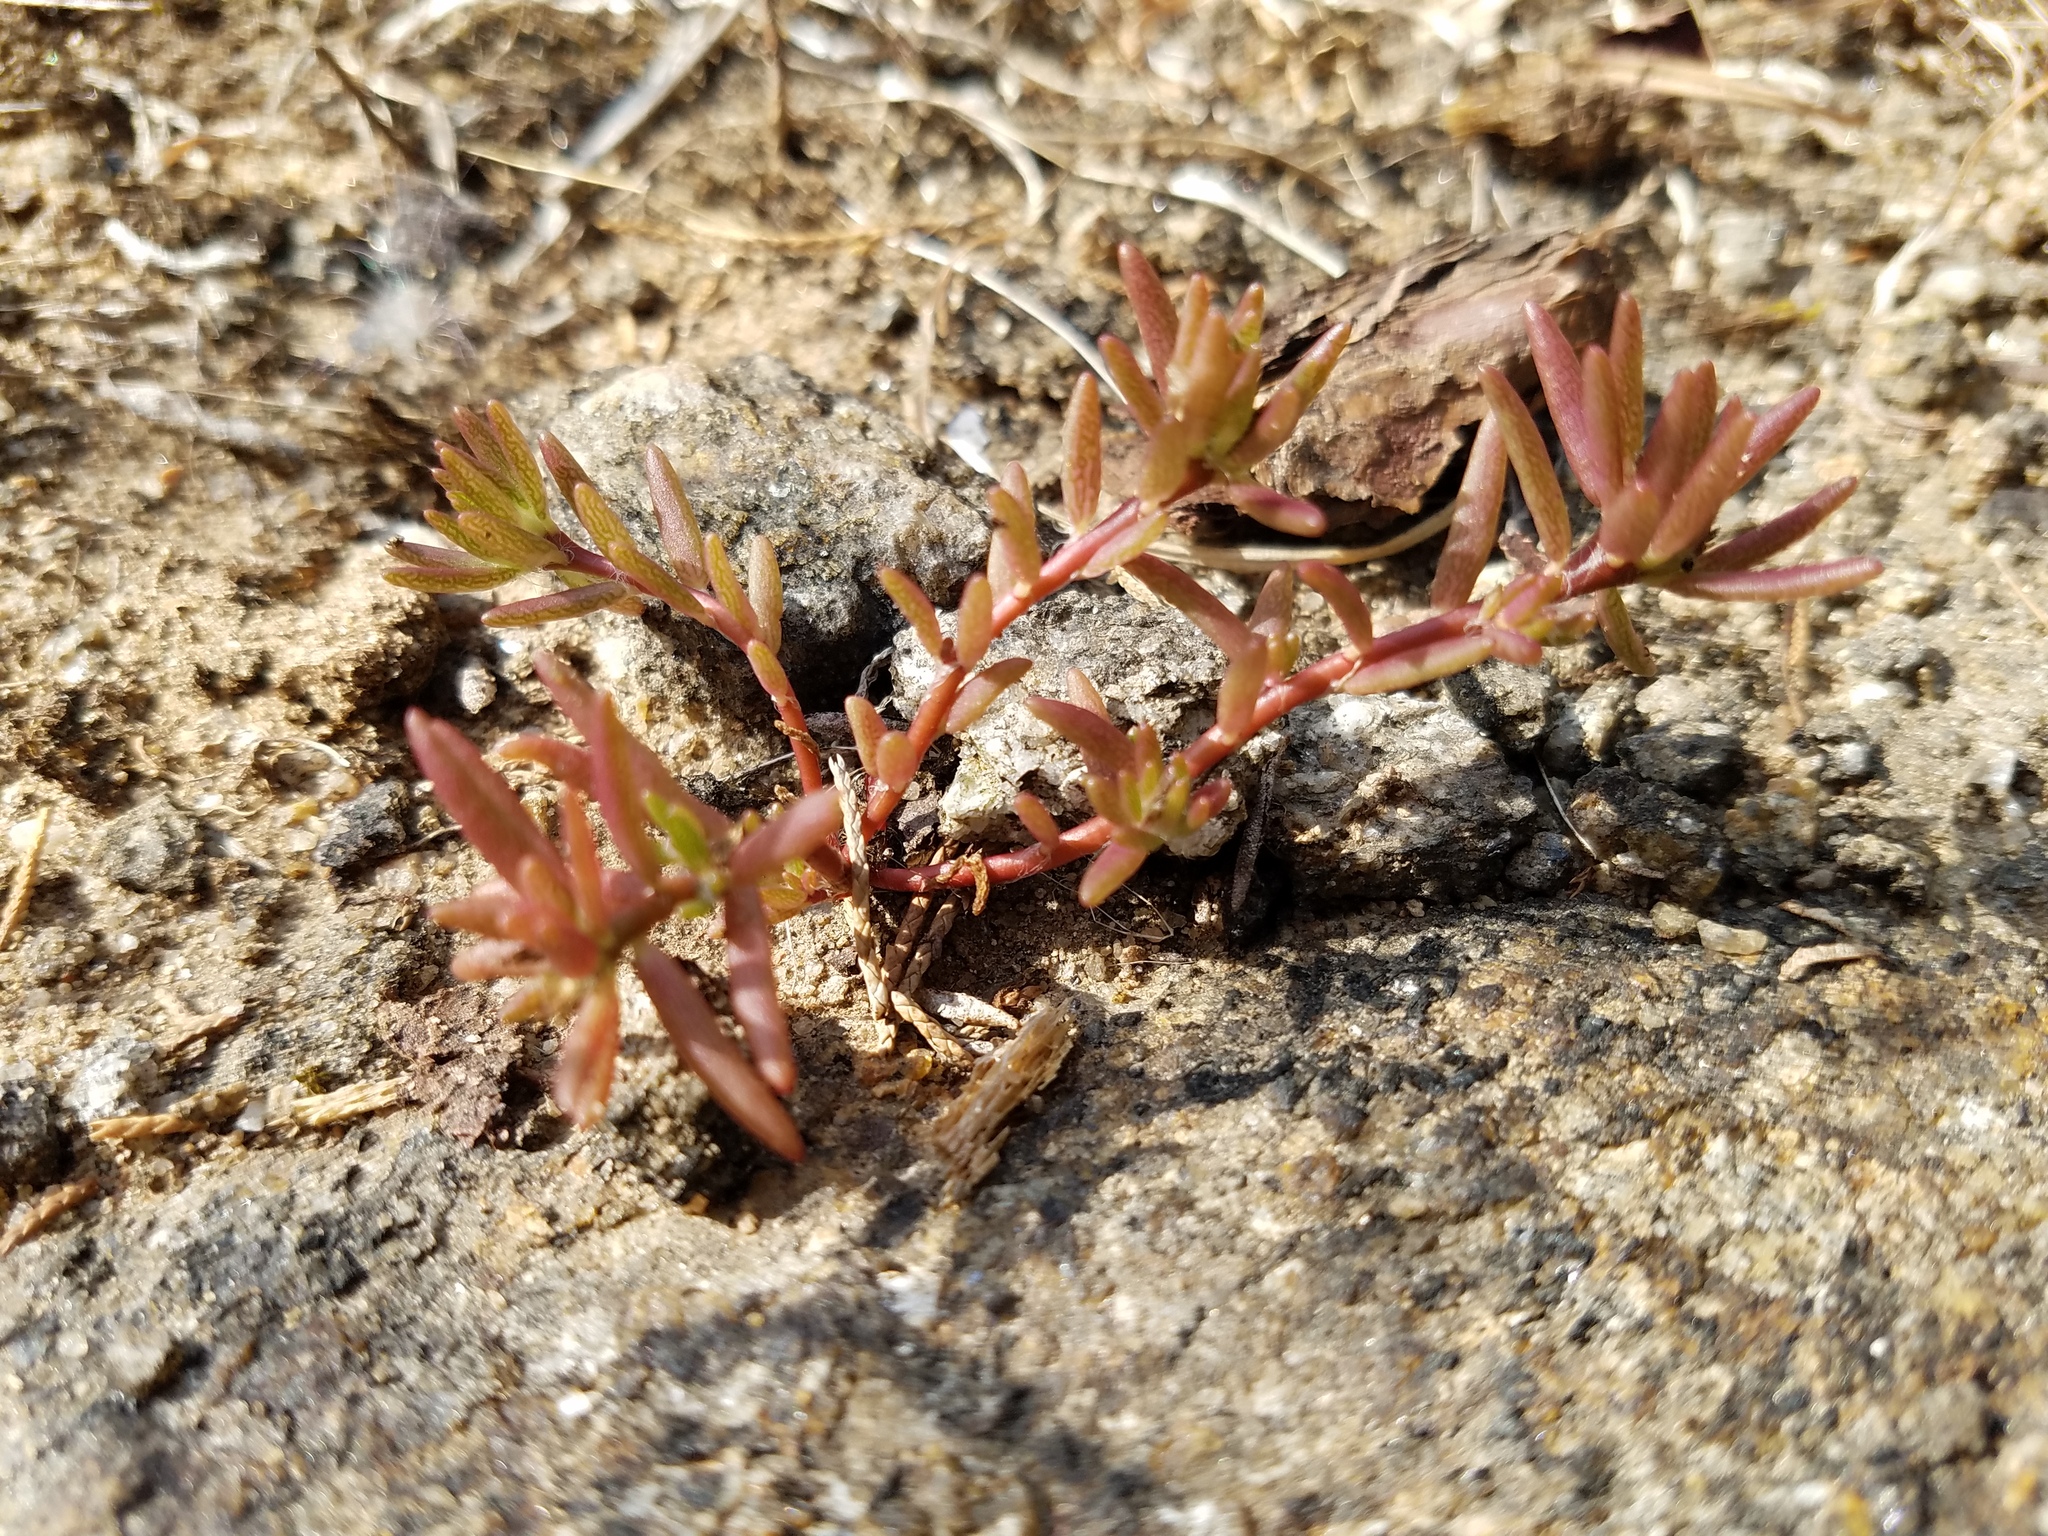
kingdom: Plantae
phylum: Tracheophyta
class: Magnoliopsida
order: Caryophyllales
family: Portulacaceae
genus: Portulaca
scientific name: Portulaca smallii
